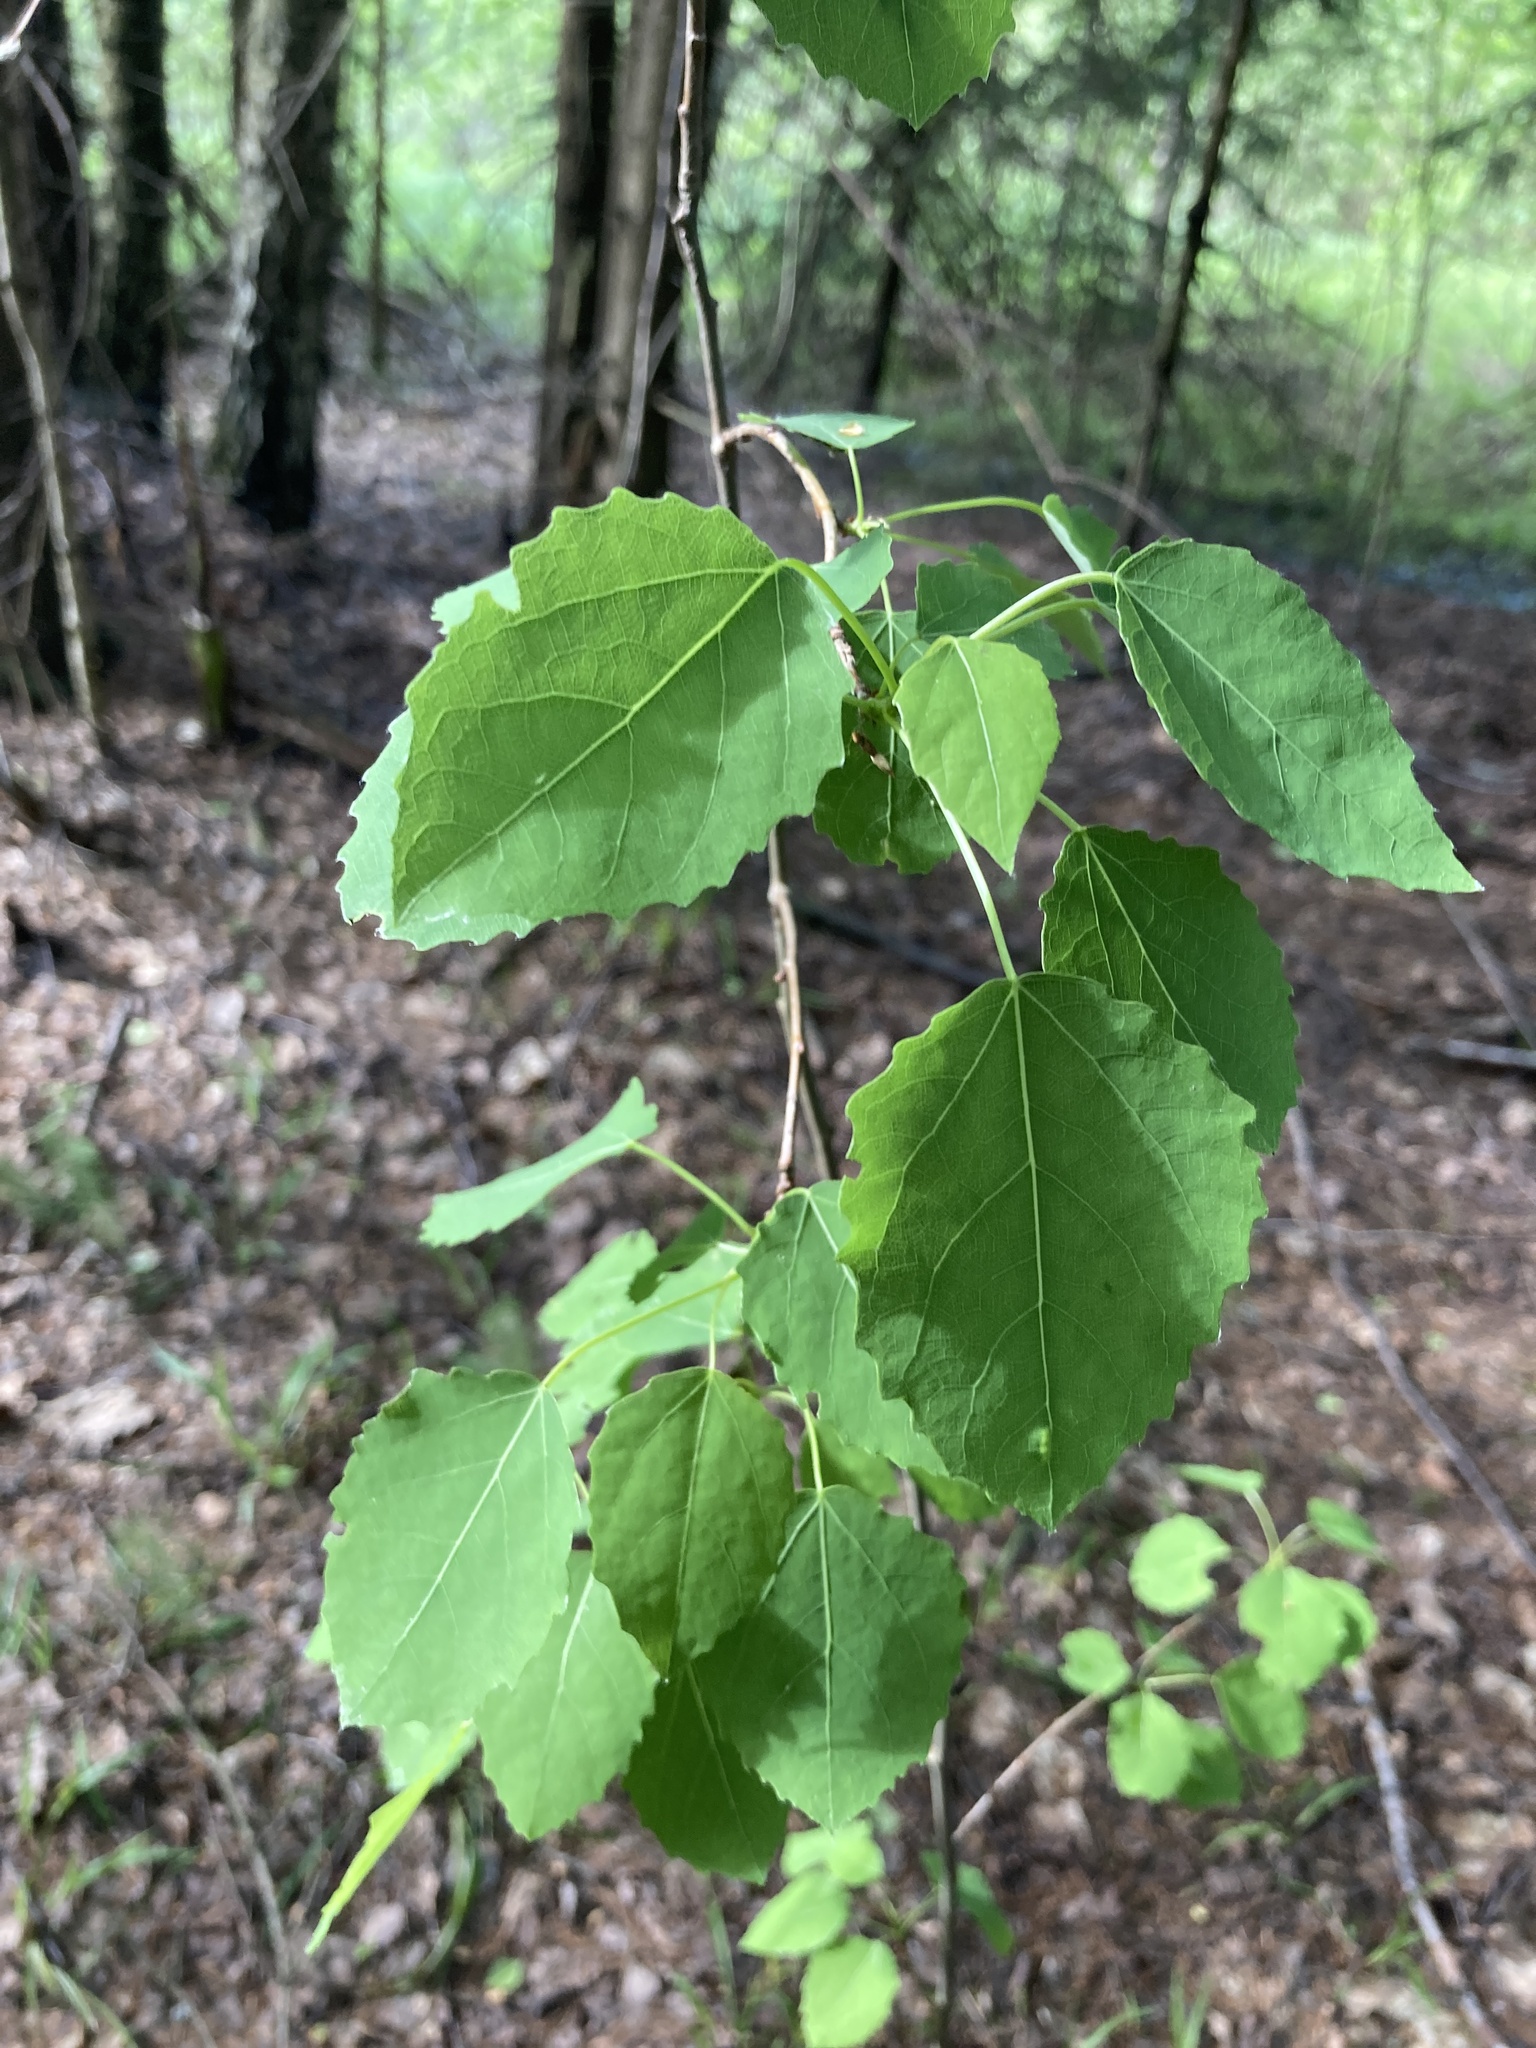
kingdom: Plantae
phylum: Tracheophyta
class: Magnoliopsida
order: Malpighiales
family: Salicaceae
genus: Populus
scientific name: Populus tremula
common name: European aspen
